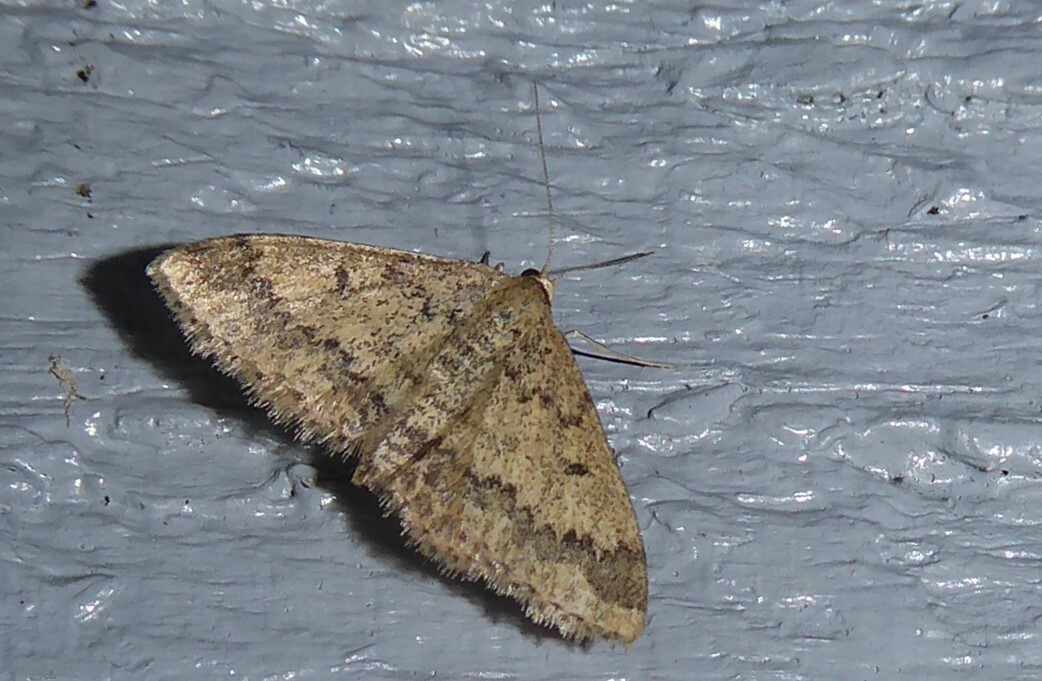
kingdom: Animalia
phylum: Arthropoda
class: Insecta
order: Lepidoptera
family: Geometridae
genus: Scopula
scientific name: Scopula rubraria
